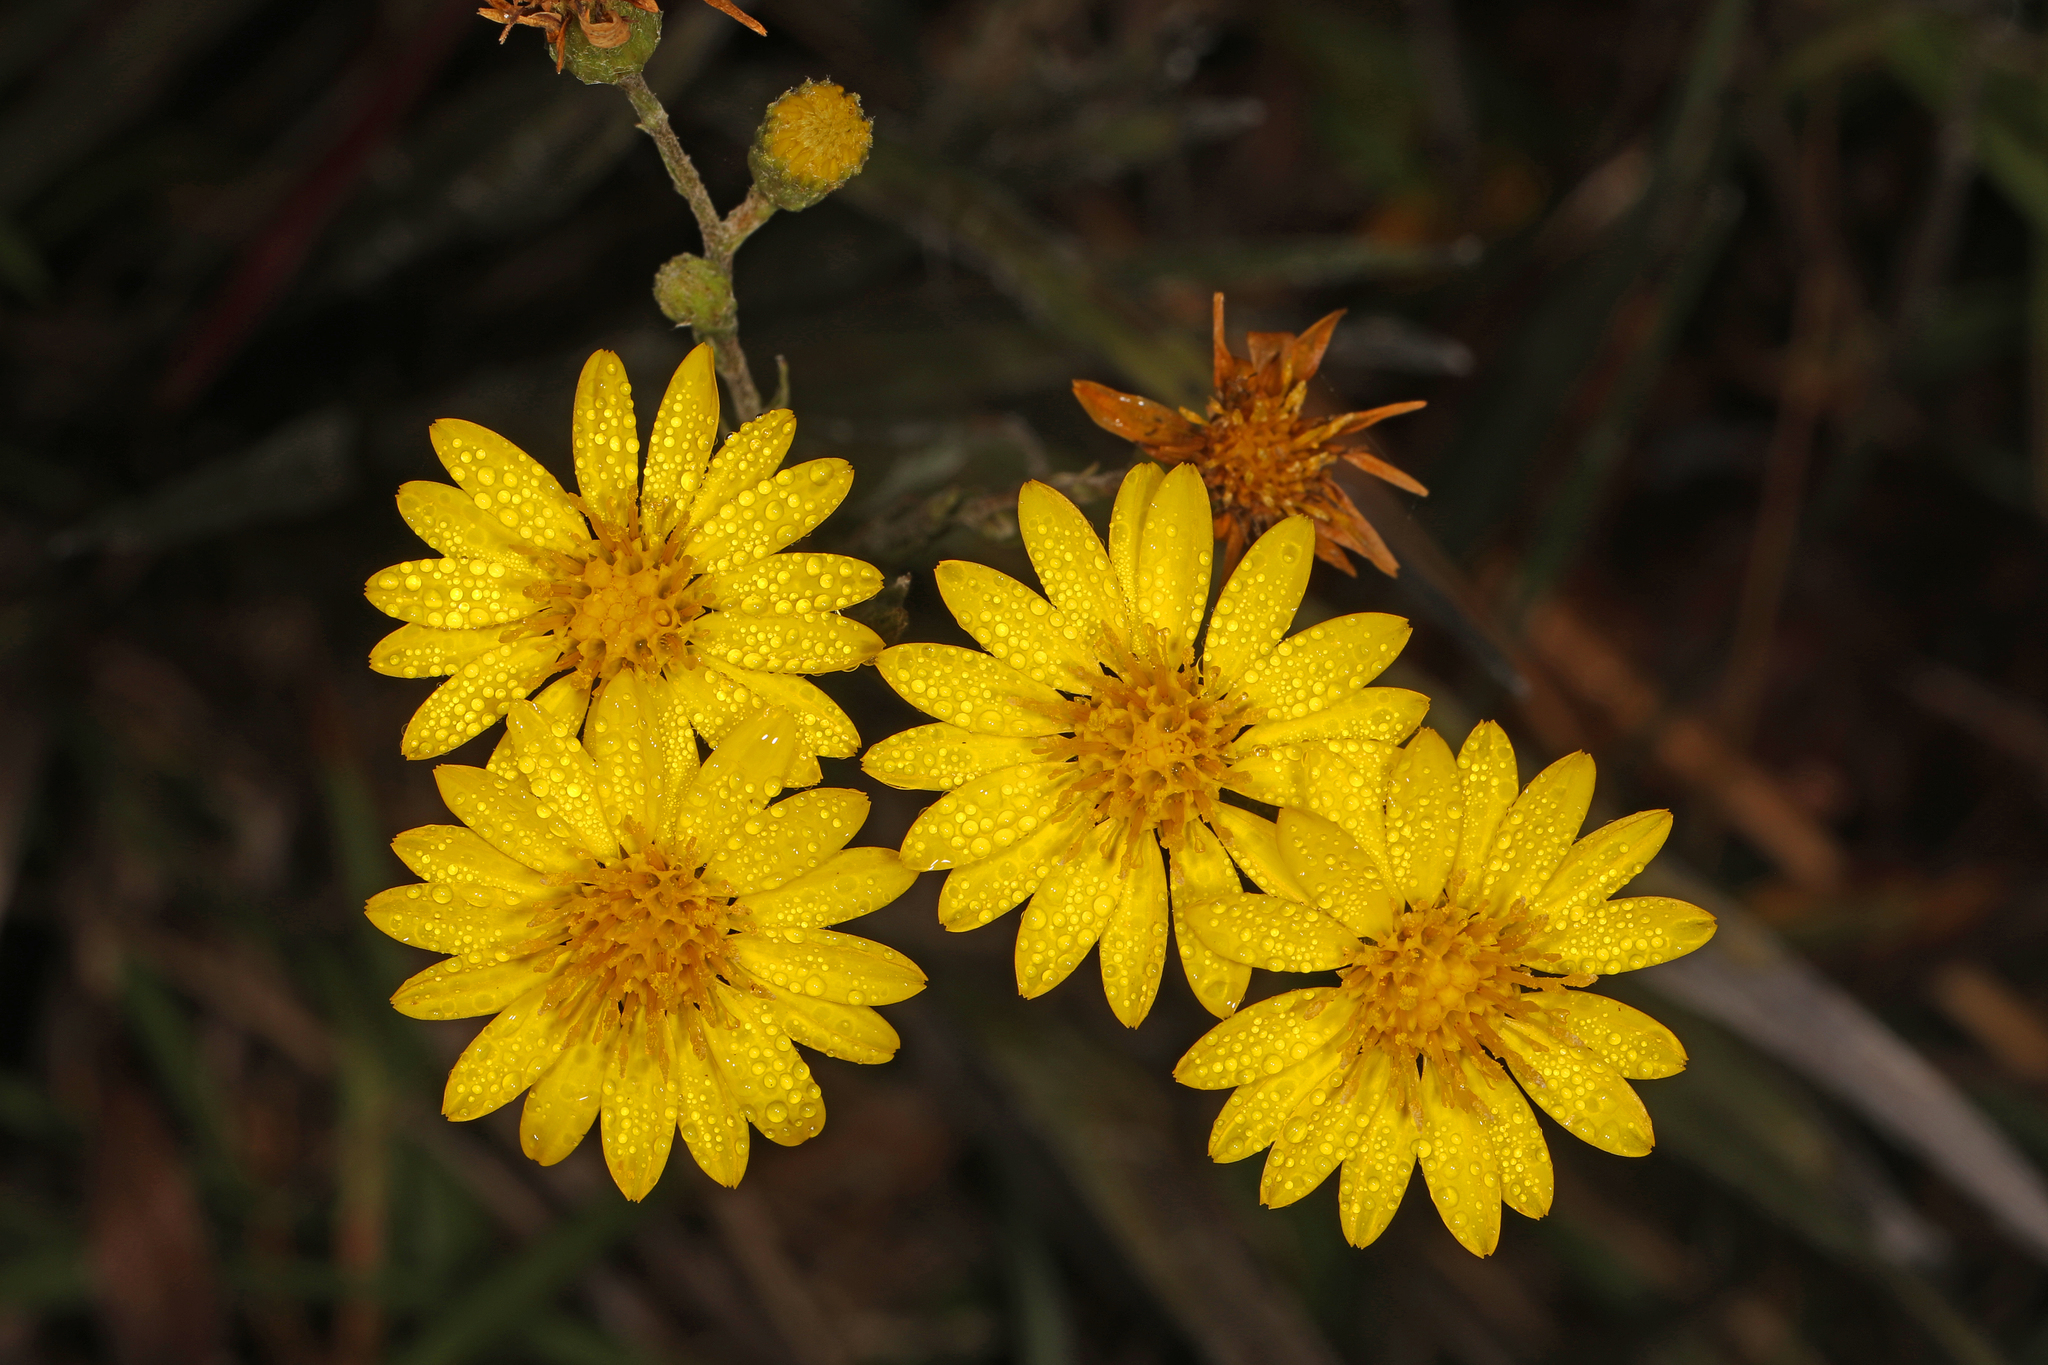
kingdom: Plantae
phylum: Tracheophyta
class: Magnoliopsida
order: Asterales
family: Asteraceae
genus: Pityopsis
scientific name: Pityopsis graminifolia
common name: Grass-leaf golden-aster
